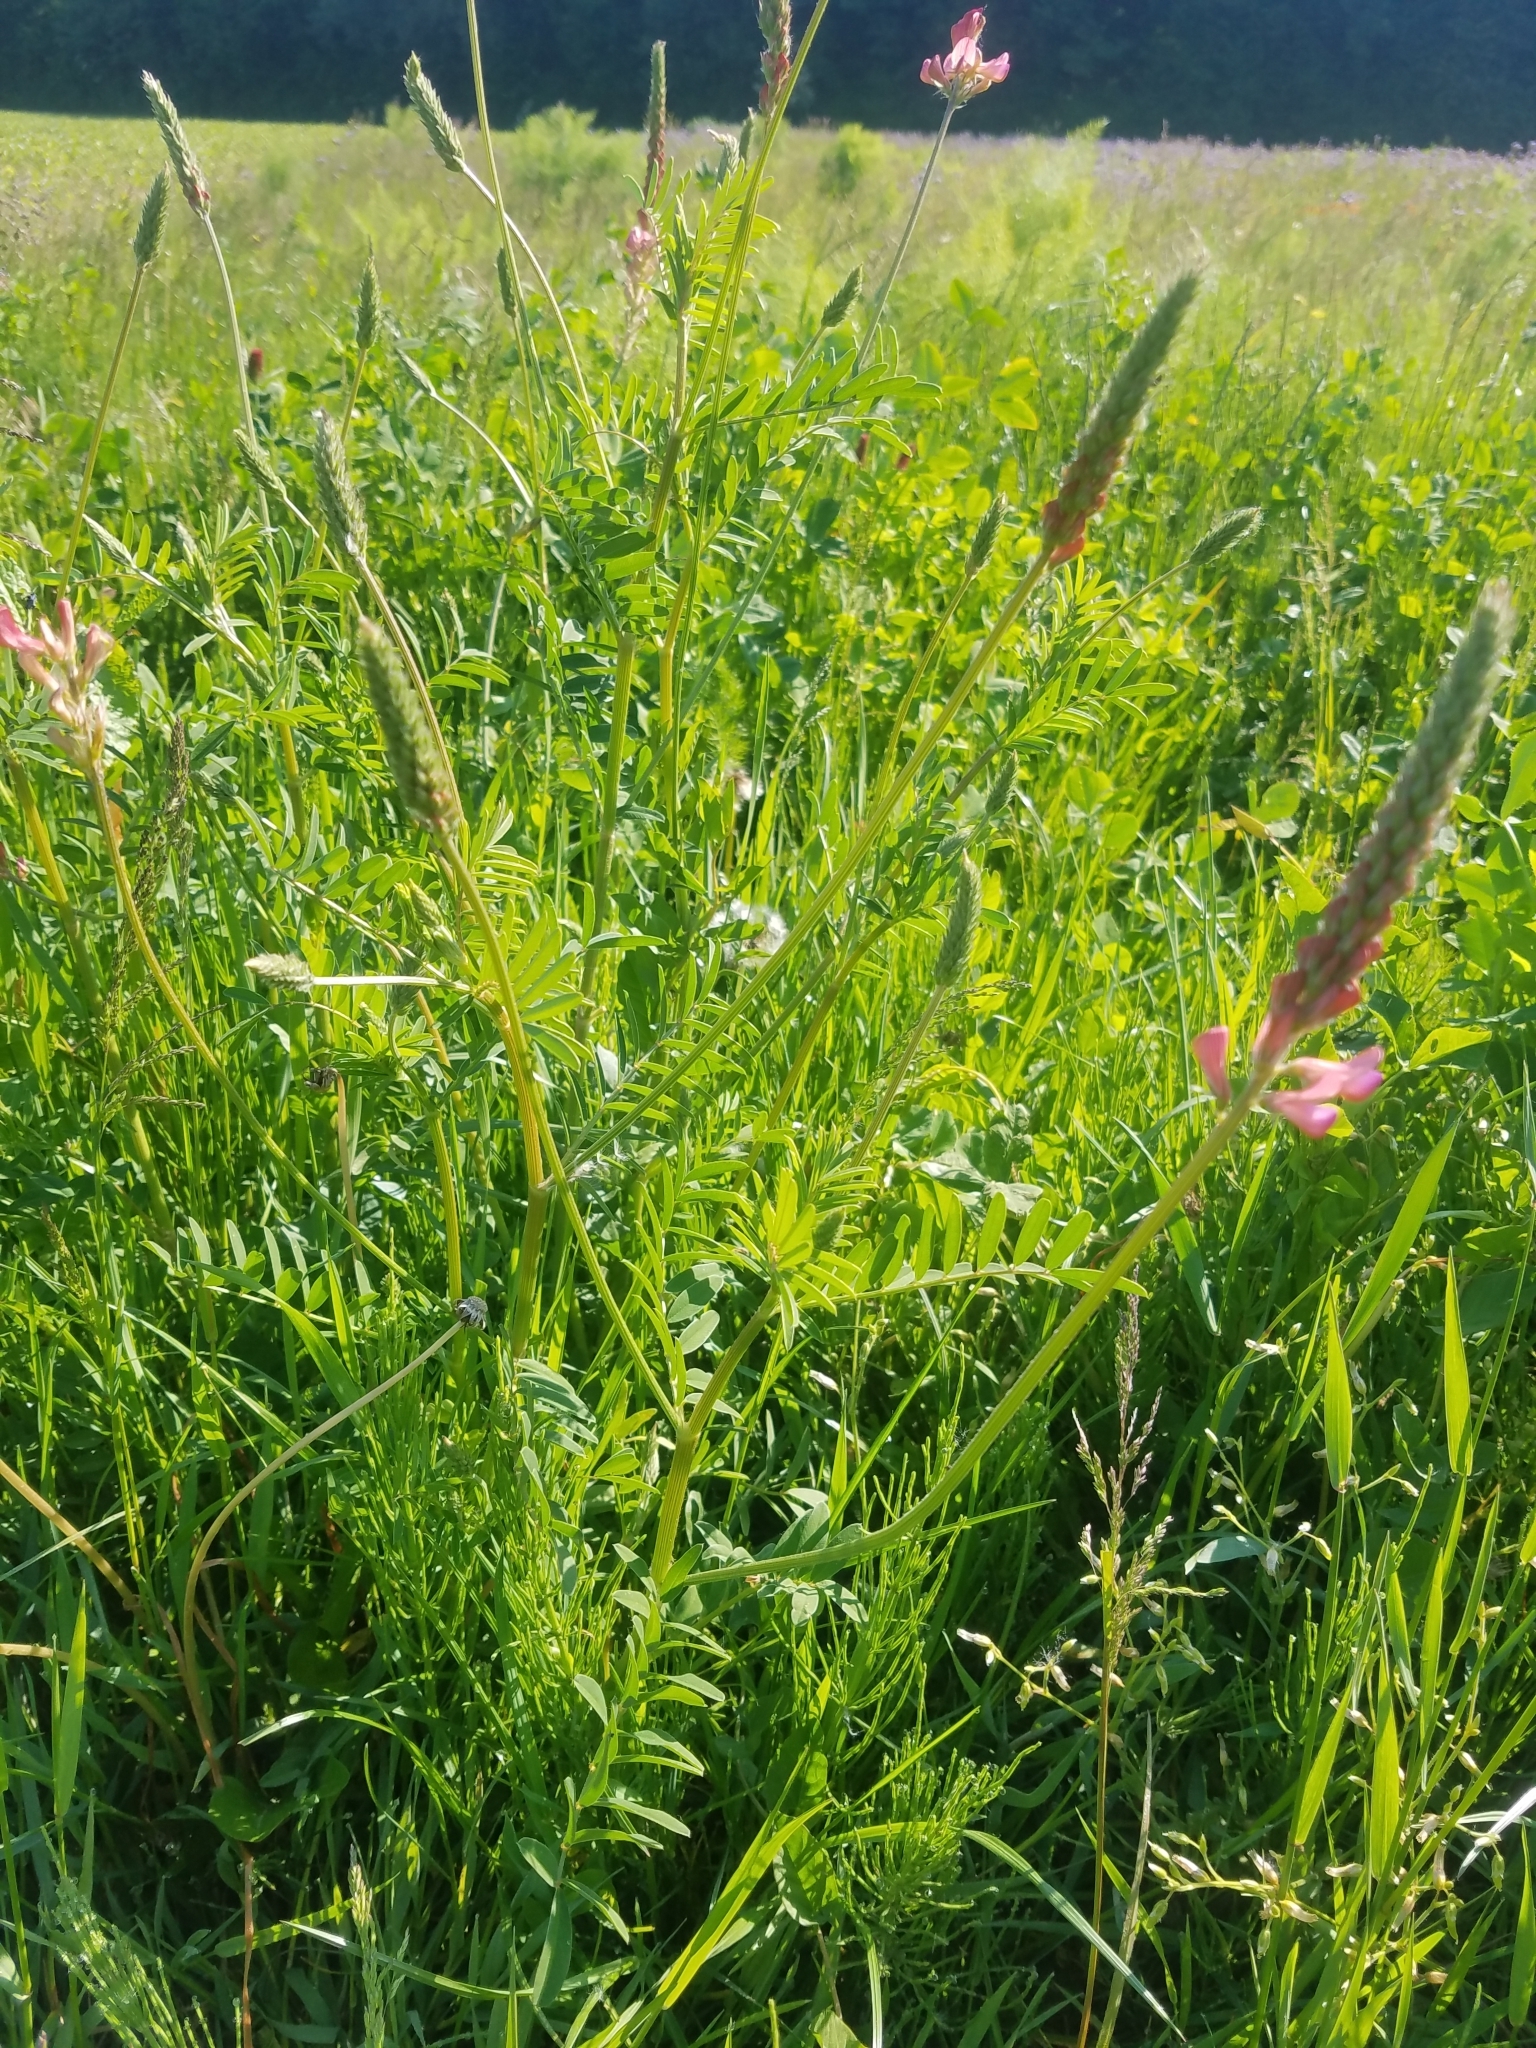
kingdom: Plantae
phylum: Tracheophyta
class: Magnoliopsida
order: Fabales
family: Fabaceae
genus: Onobrychis
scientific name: Onobrychis viciifolia
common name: Sainfoin
